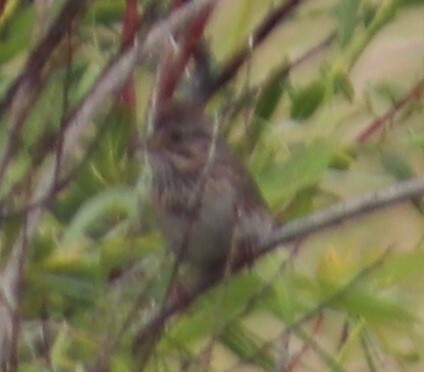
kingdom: Animalia
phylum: Chordata
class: Aves
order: Passeriformes
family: Passerellidae
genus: Melospiza
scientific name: Melospiza lincolnii
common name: Lincoln's sparrow
